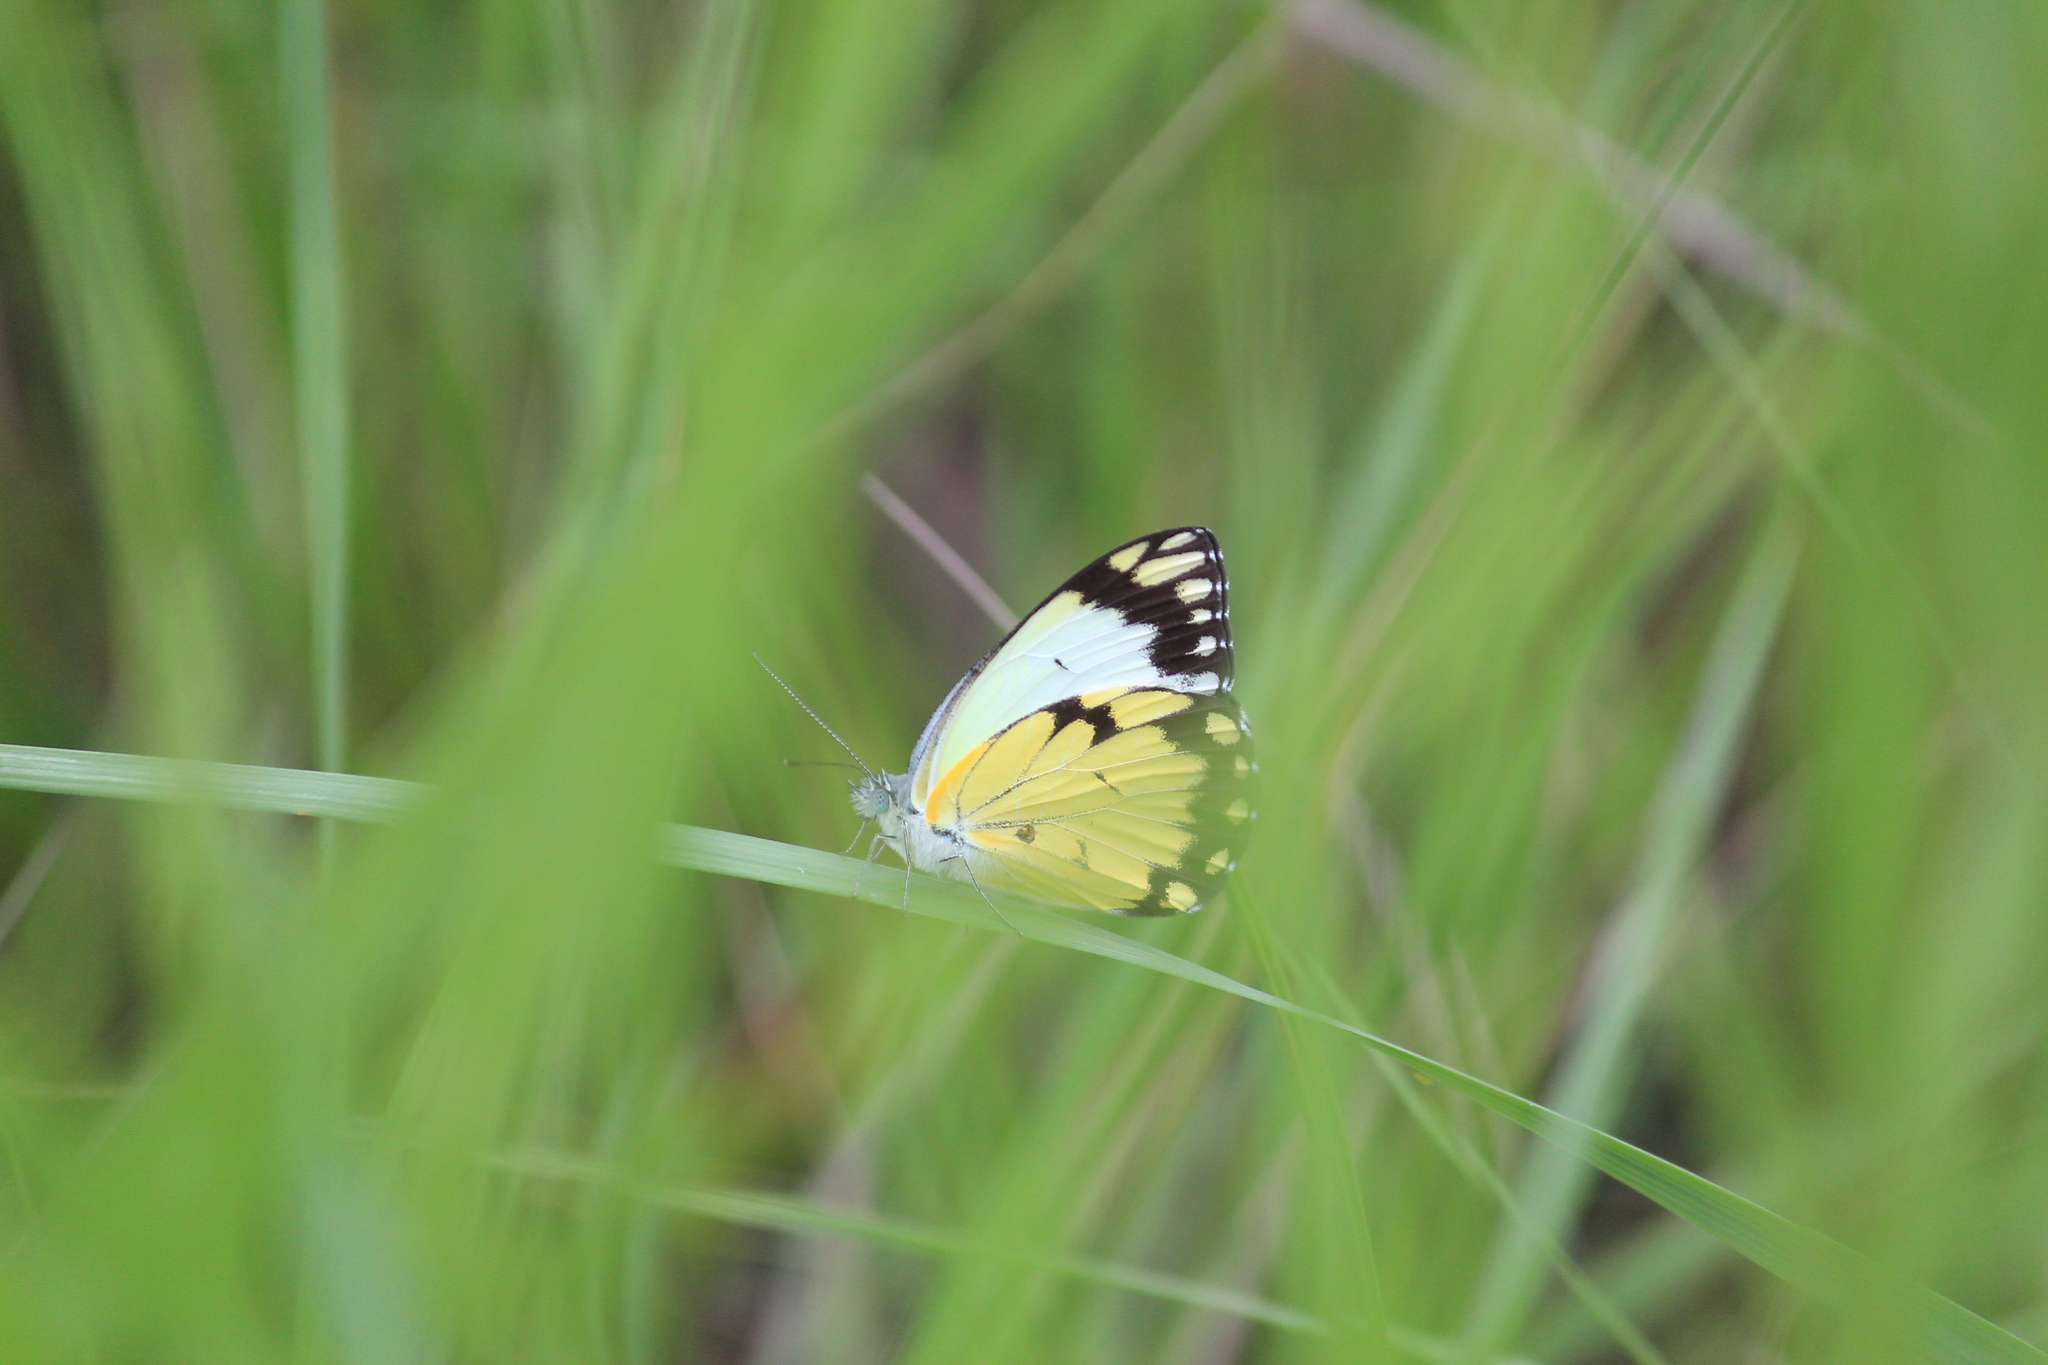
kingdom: Animalia
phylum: Arthropoda
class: Insecta
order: Lepidoptera
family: Pieridae
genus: Belenois
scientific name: Belenois creona
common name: African caper white
